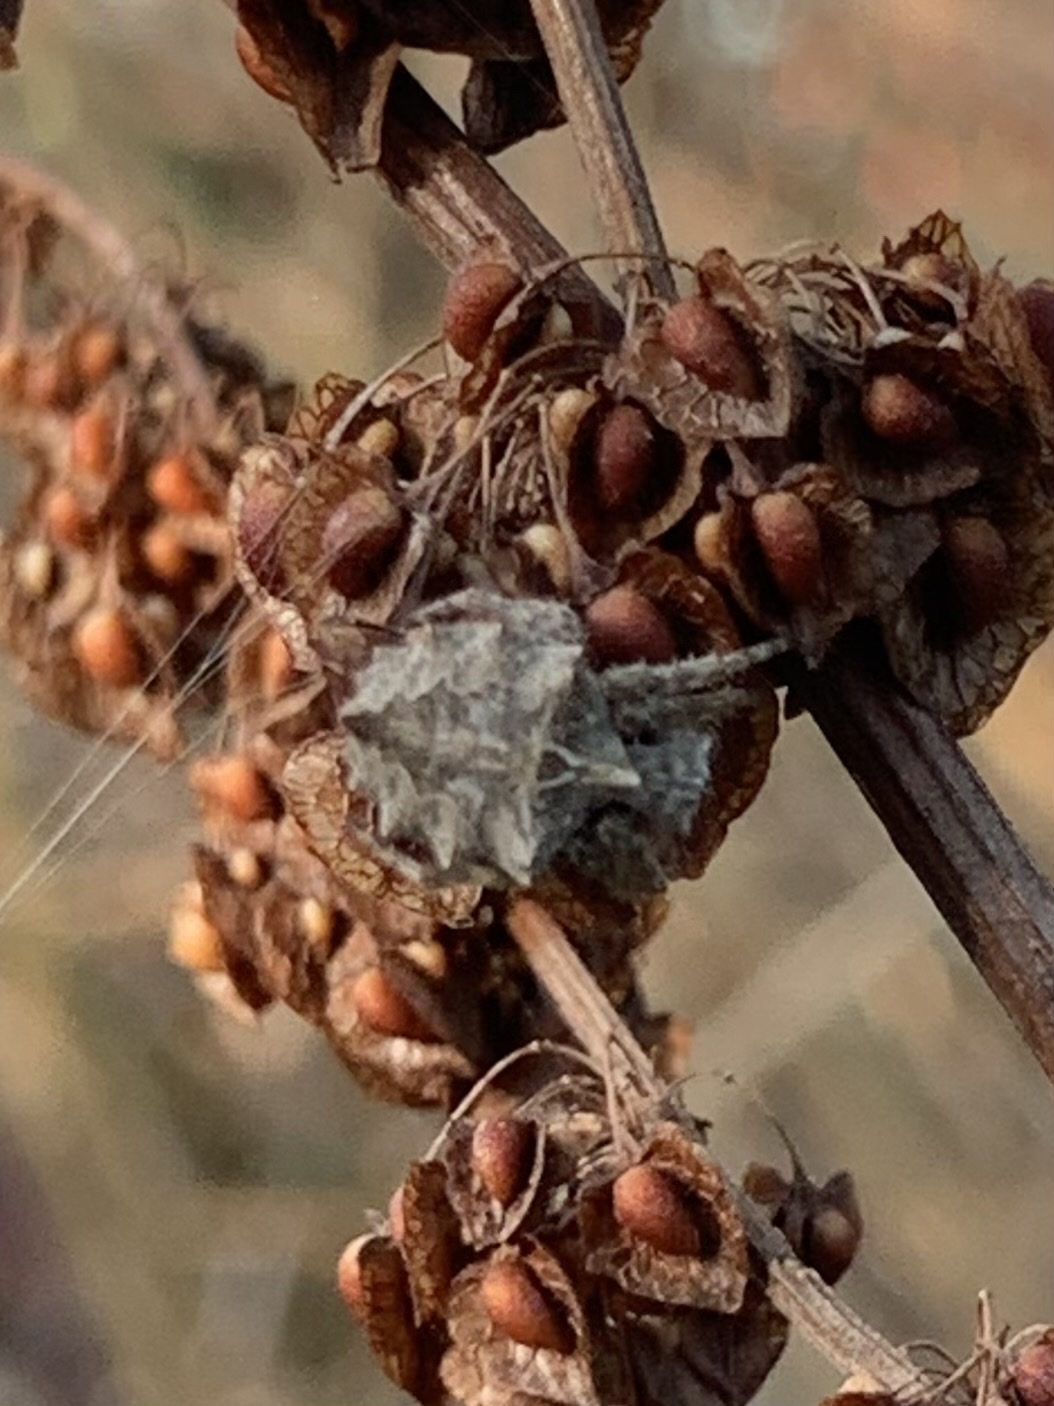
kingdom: Animalia
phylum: Arthropoda
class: Arachnida
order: Araneae
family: Araneidae
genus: Acanthepeira
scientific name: Acanthepeira stellata
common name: Starbellied orbweaver
